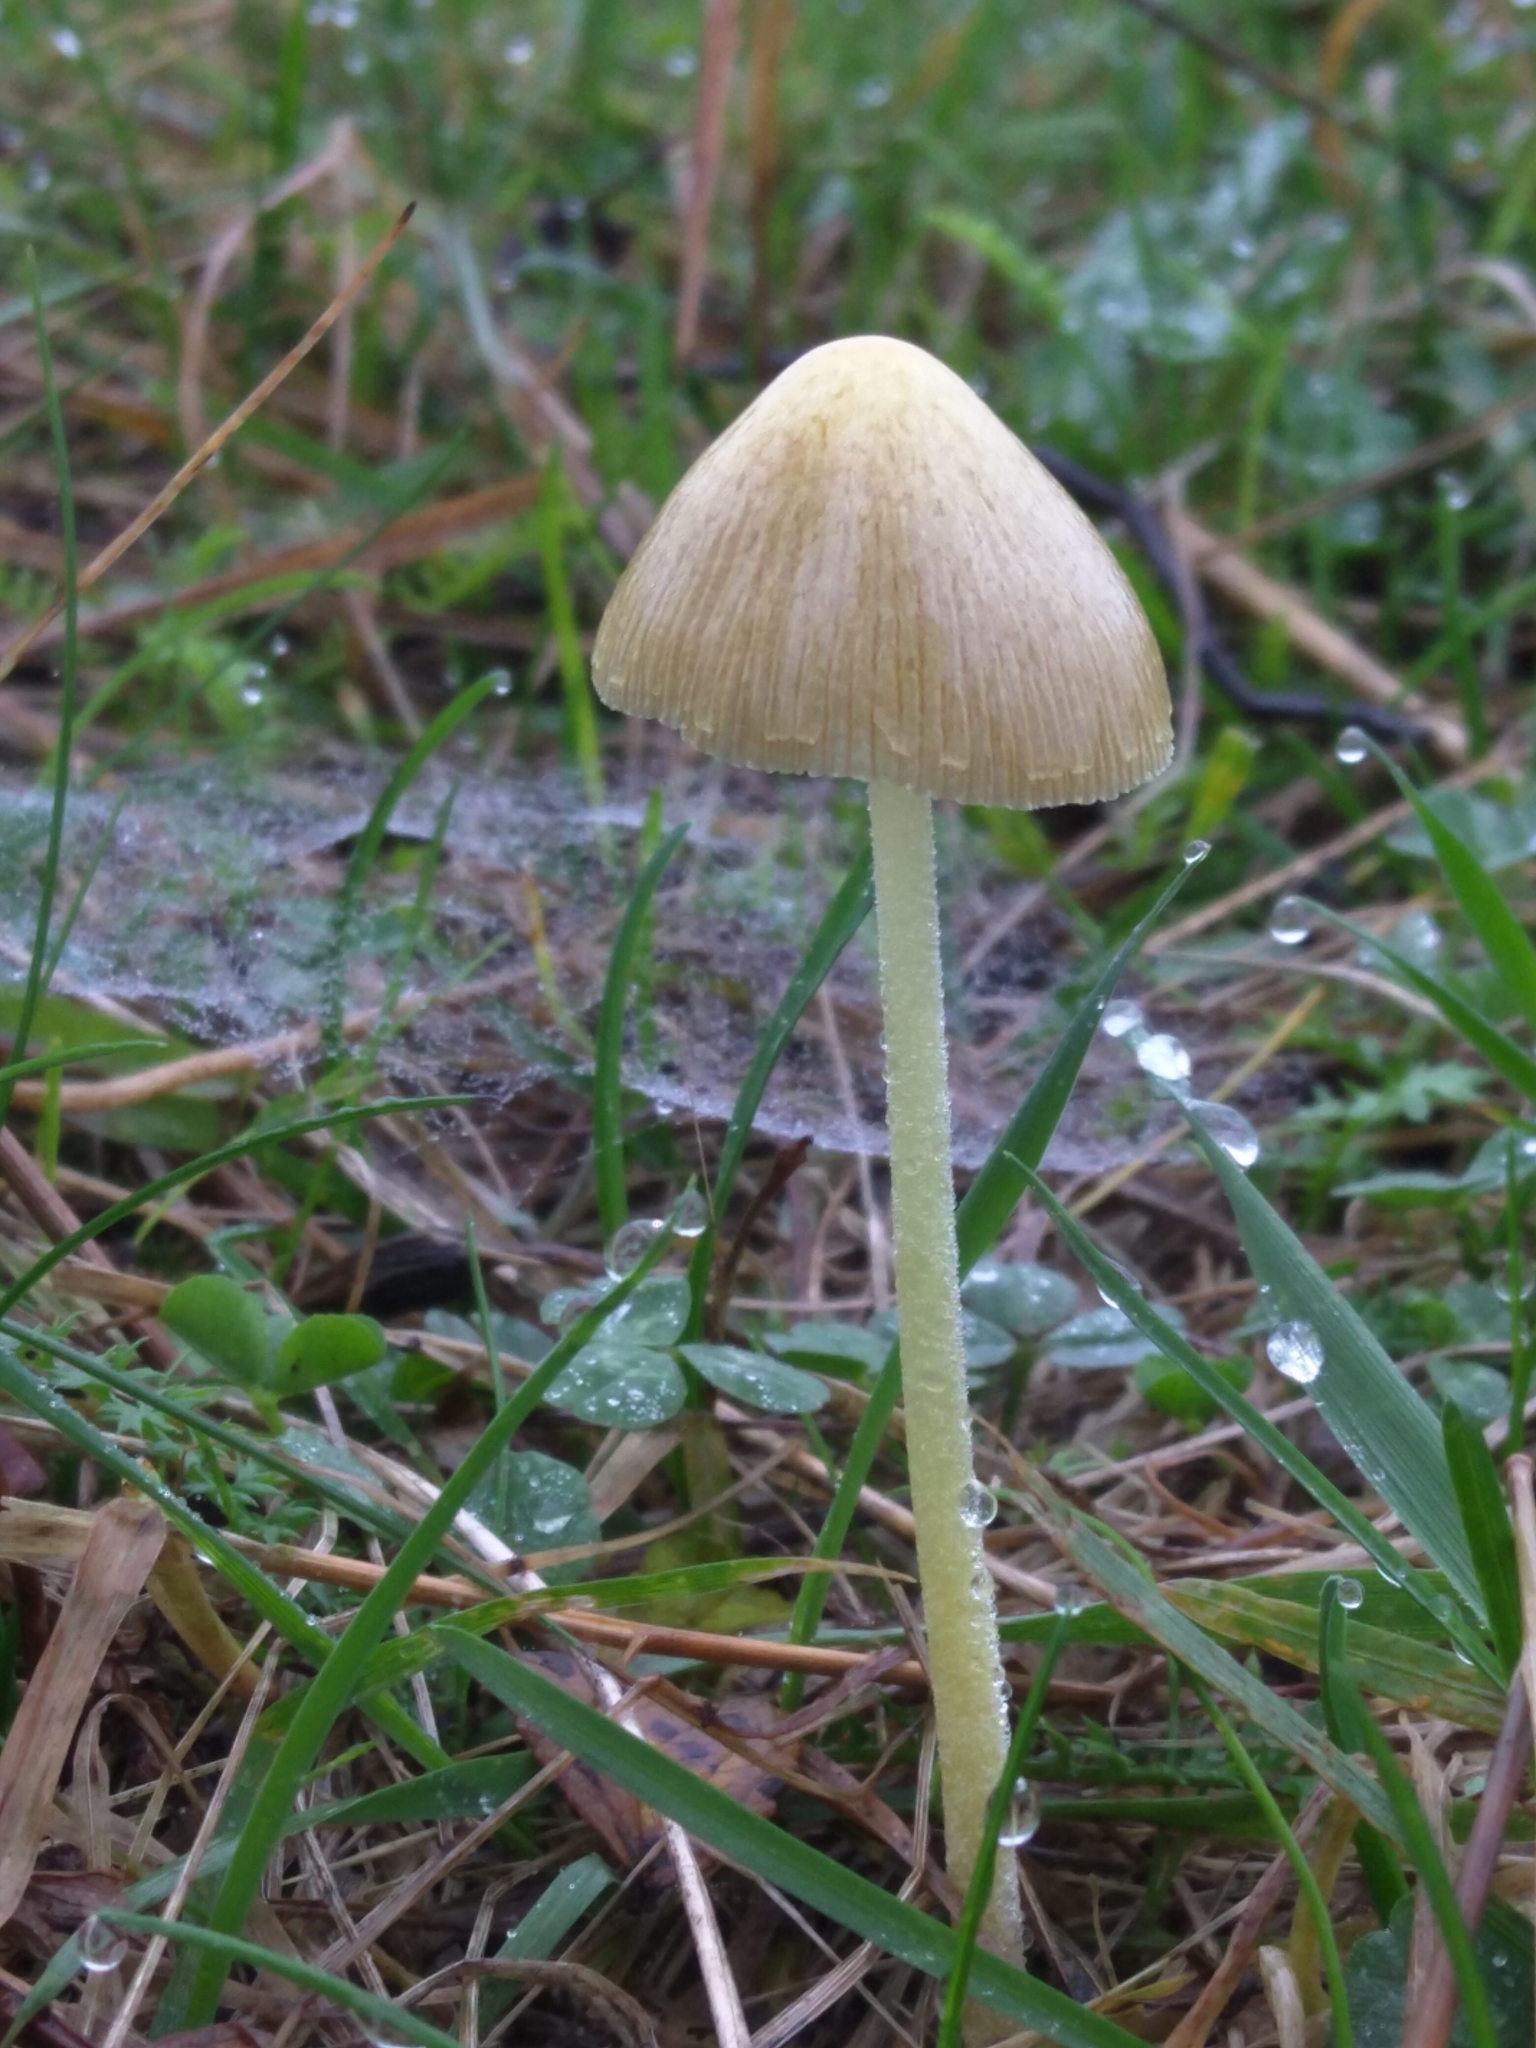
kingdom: Fungi
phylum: Basidiomycota
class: Agaricomycetes
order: Agaricales
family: Bolbitiaceae
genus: Bolbitius
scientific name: Bolbitius titubans
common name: Yellow fieldcap
